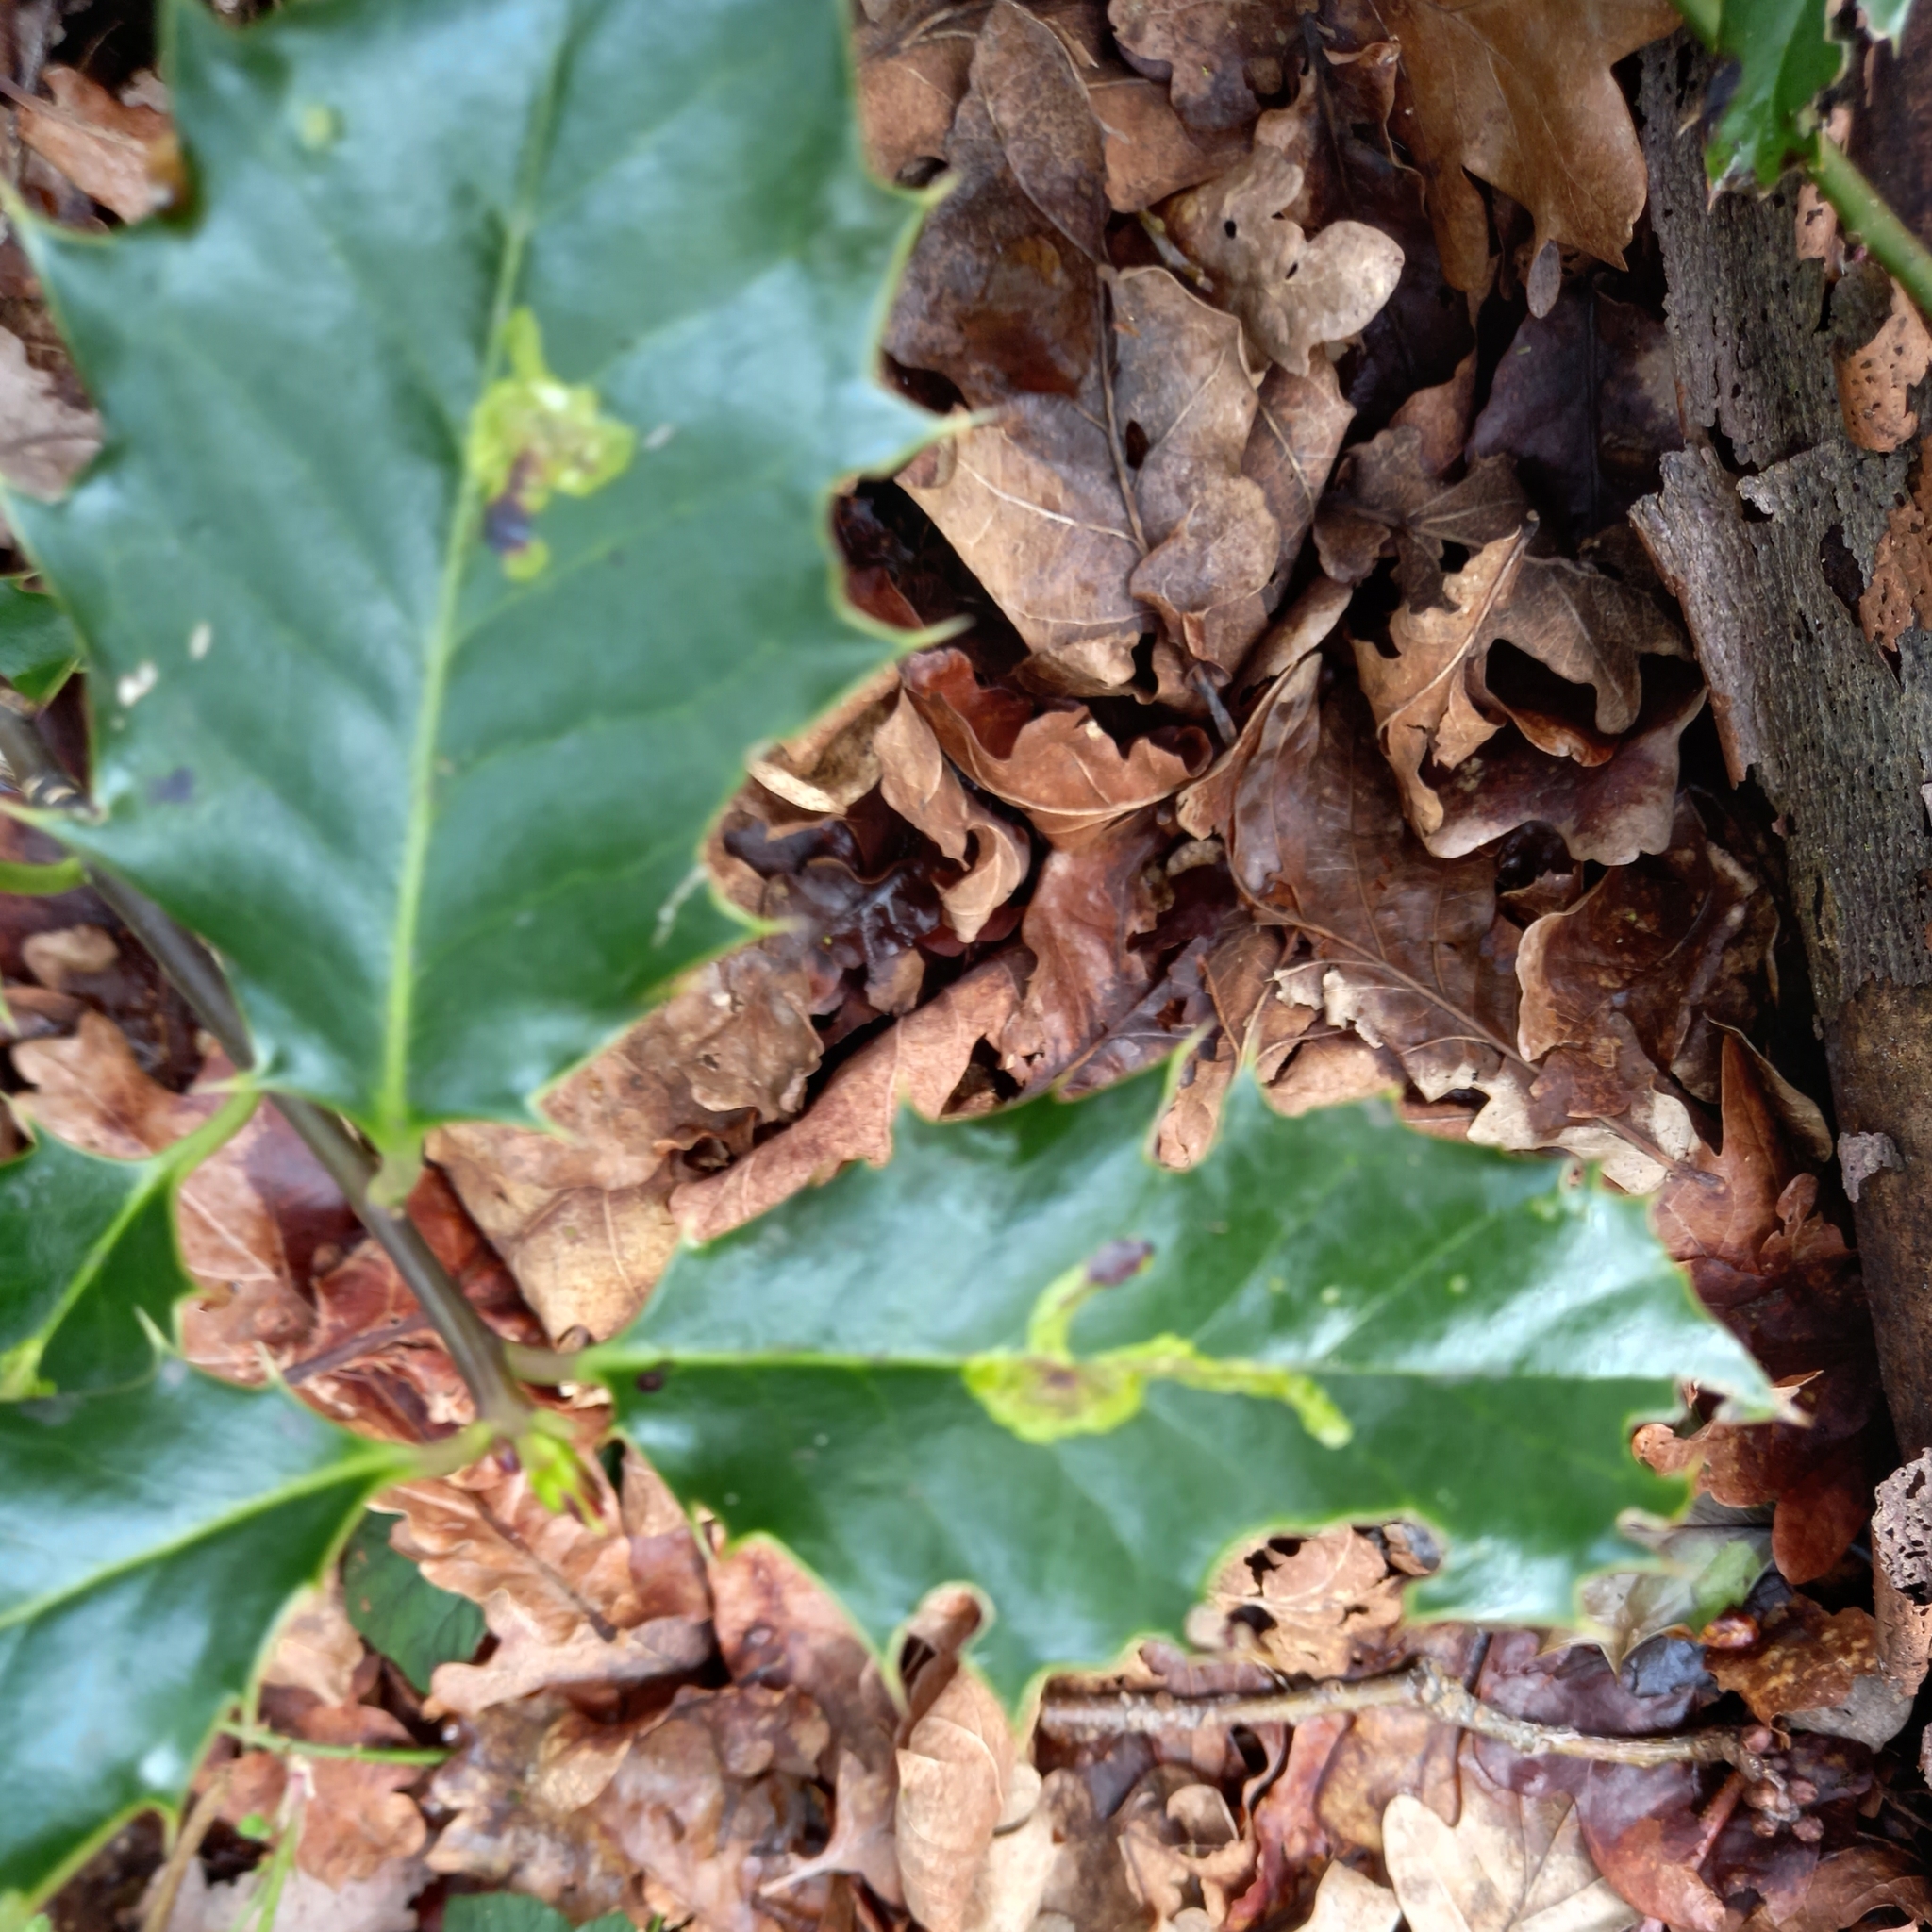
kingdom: Animalia
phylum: Arthropoda
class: Insecta
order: Diptera
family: Agromyzidae
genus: Phytomyza
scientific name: Phytomyza ilicis
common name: Holly leafminer
